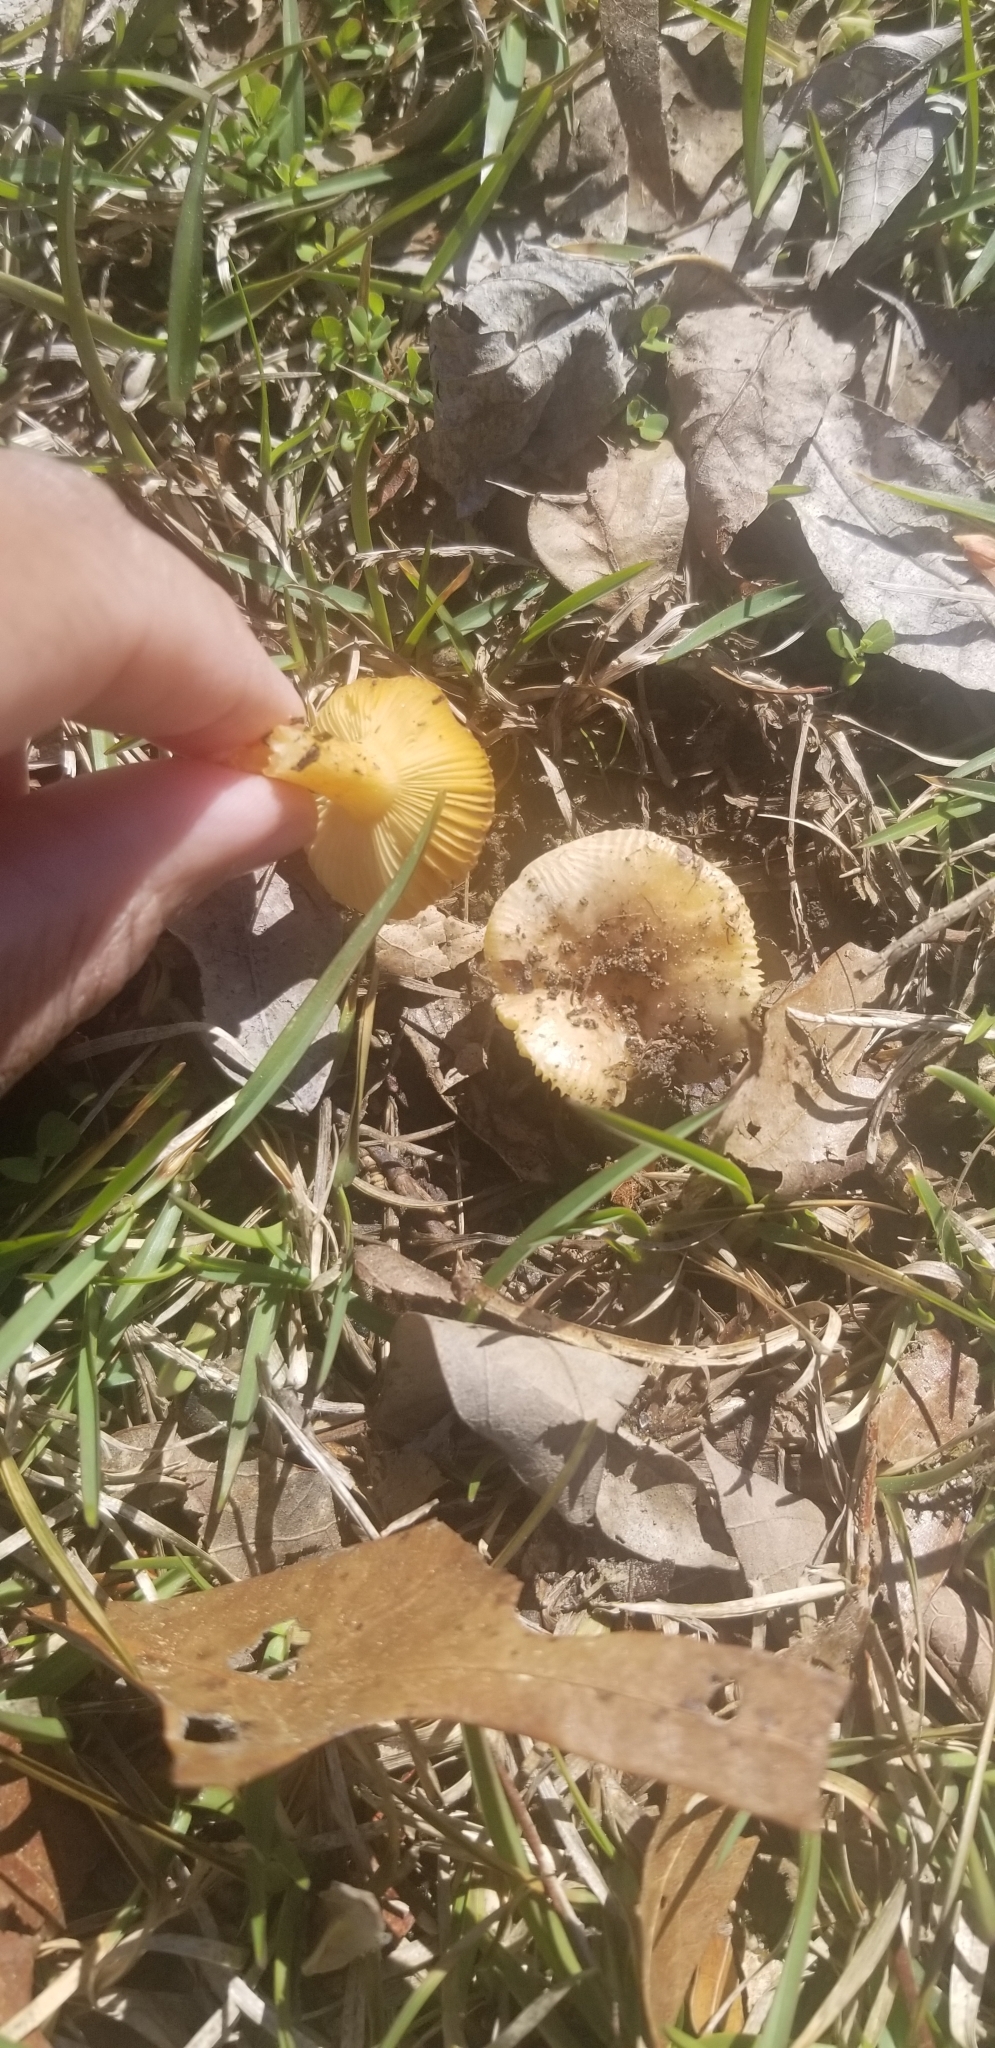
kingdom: Fungi
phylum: Basidiomycota
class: Agaricomycetes
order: Russulales
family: Russulaceae
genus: Russula
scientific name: Russula
